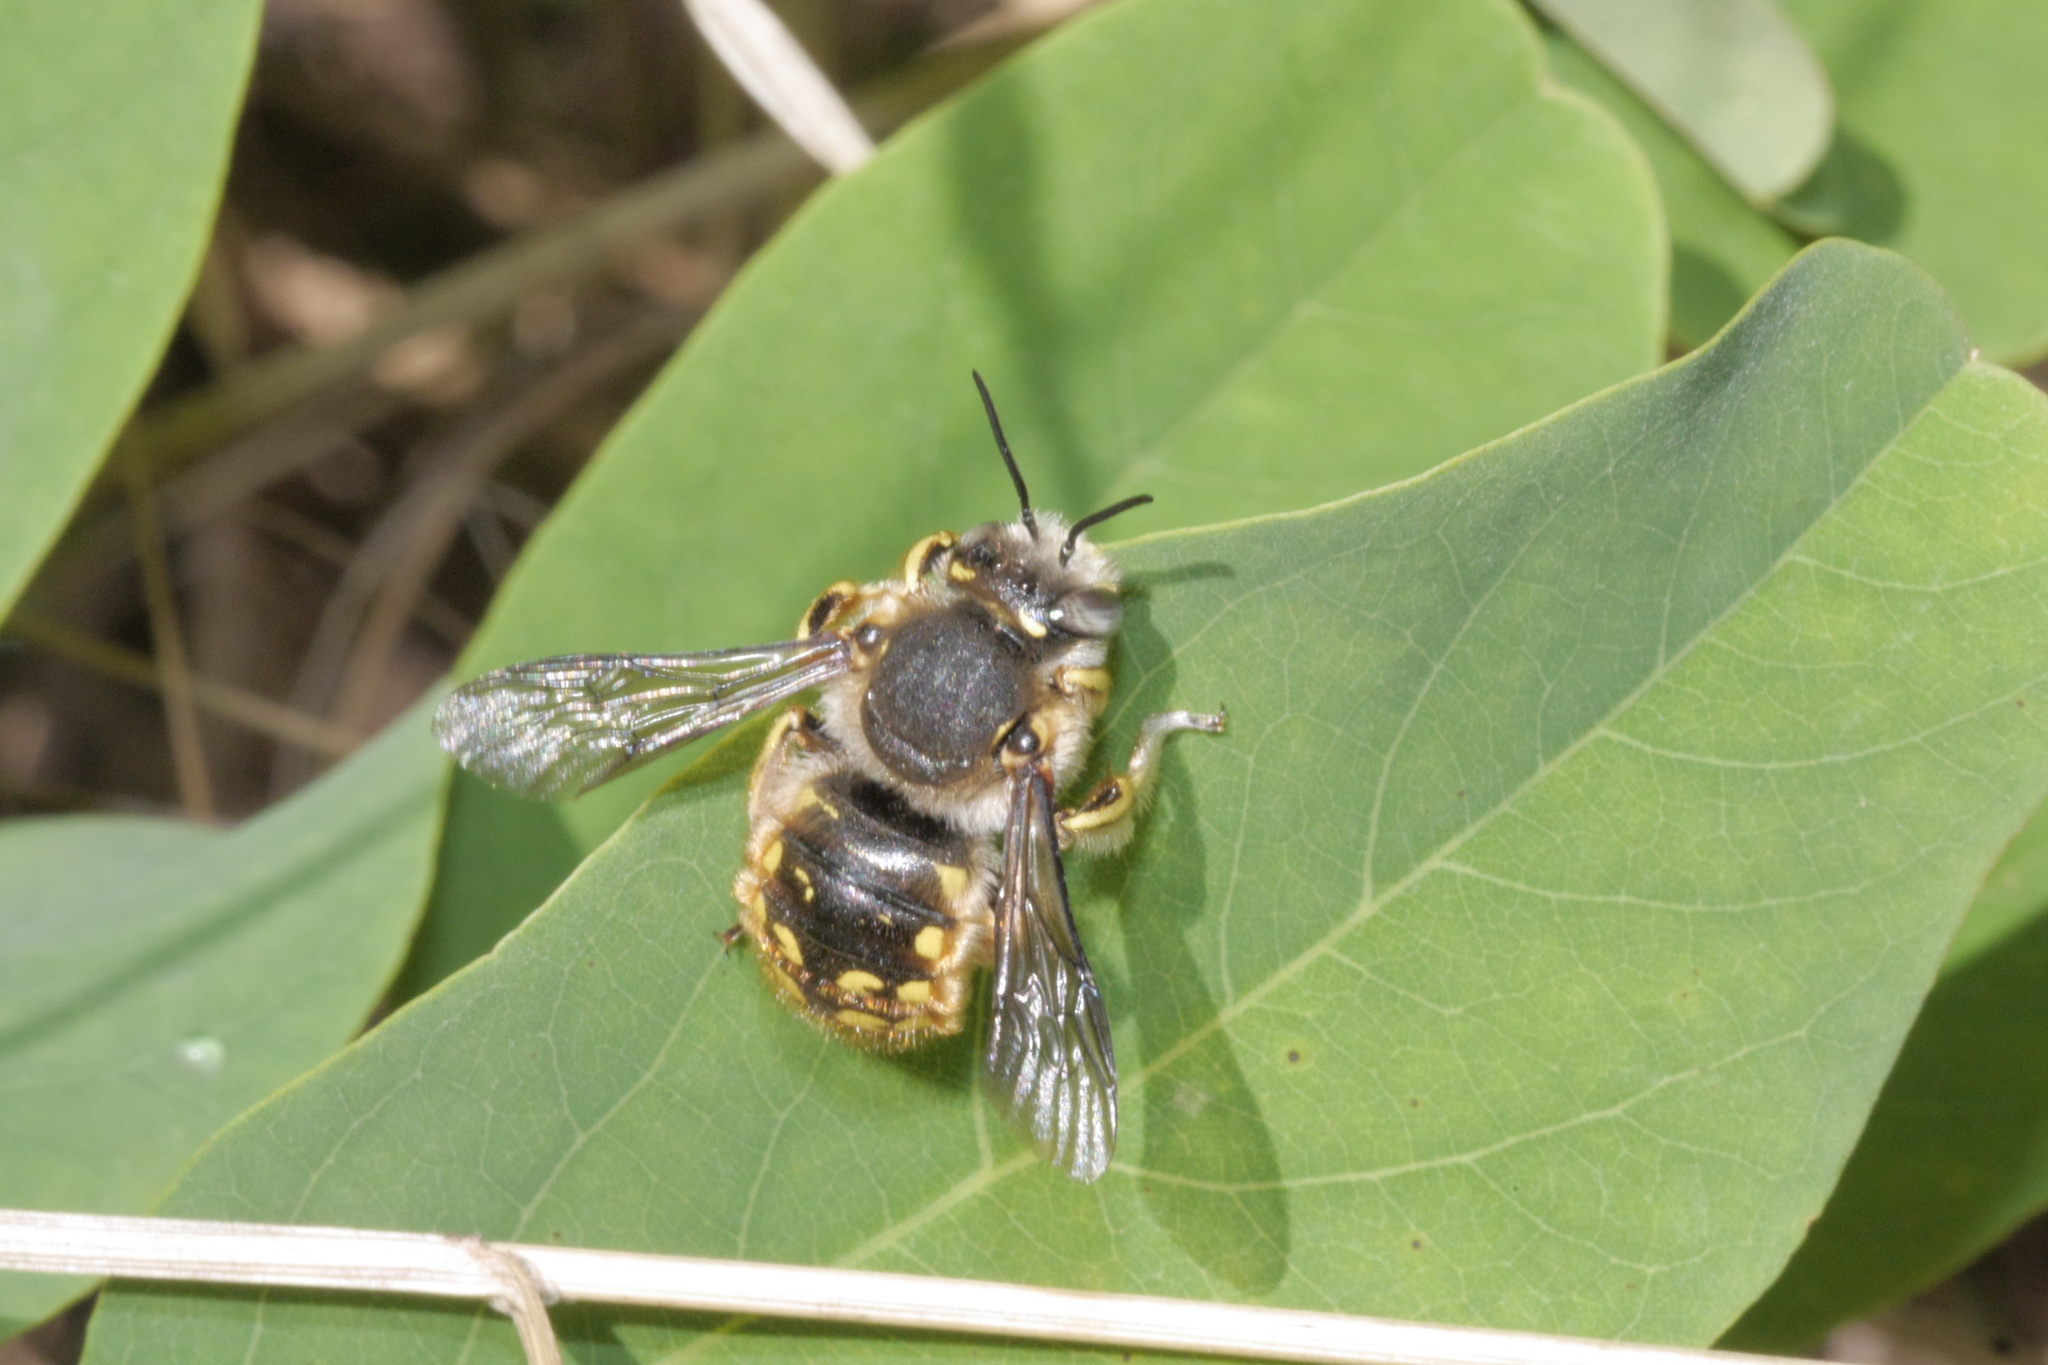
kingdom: Animalia
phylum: Arthropoda
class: Insecta
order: Hymenoptera
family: Megachilidae
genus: Anthidium
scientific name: Anthidium manicatum
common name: Wool carder bee
